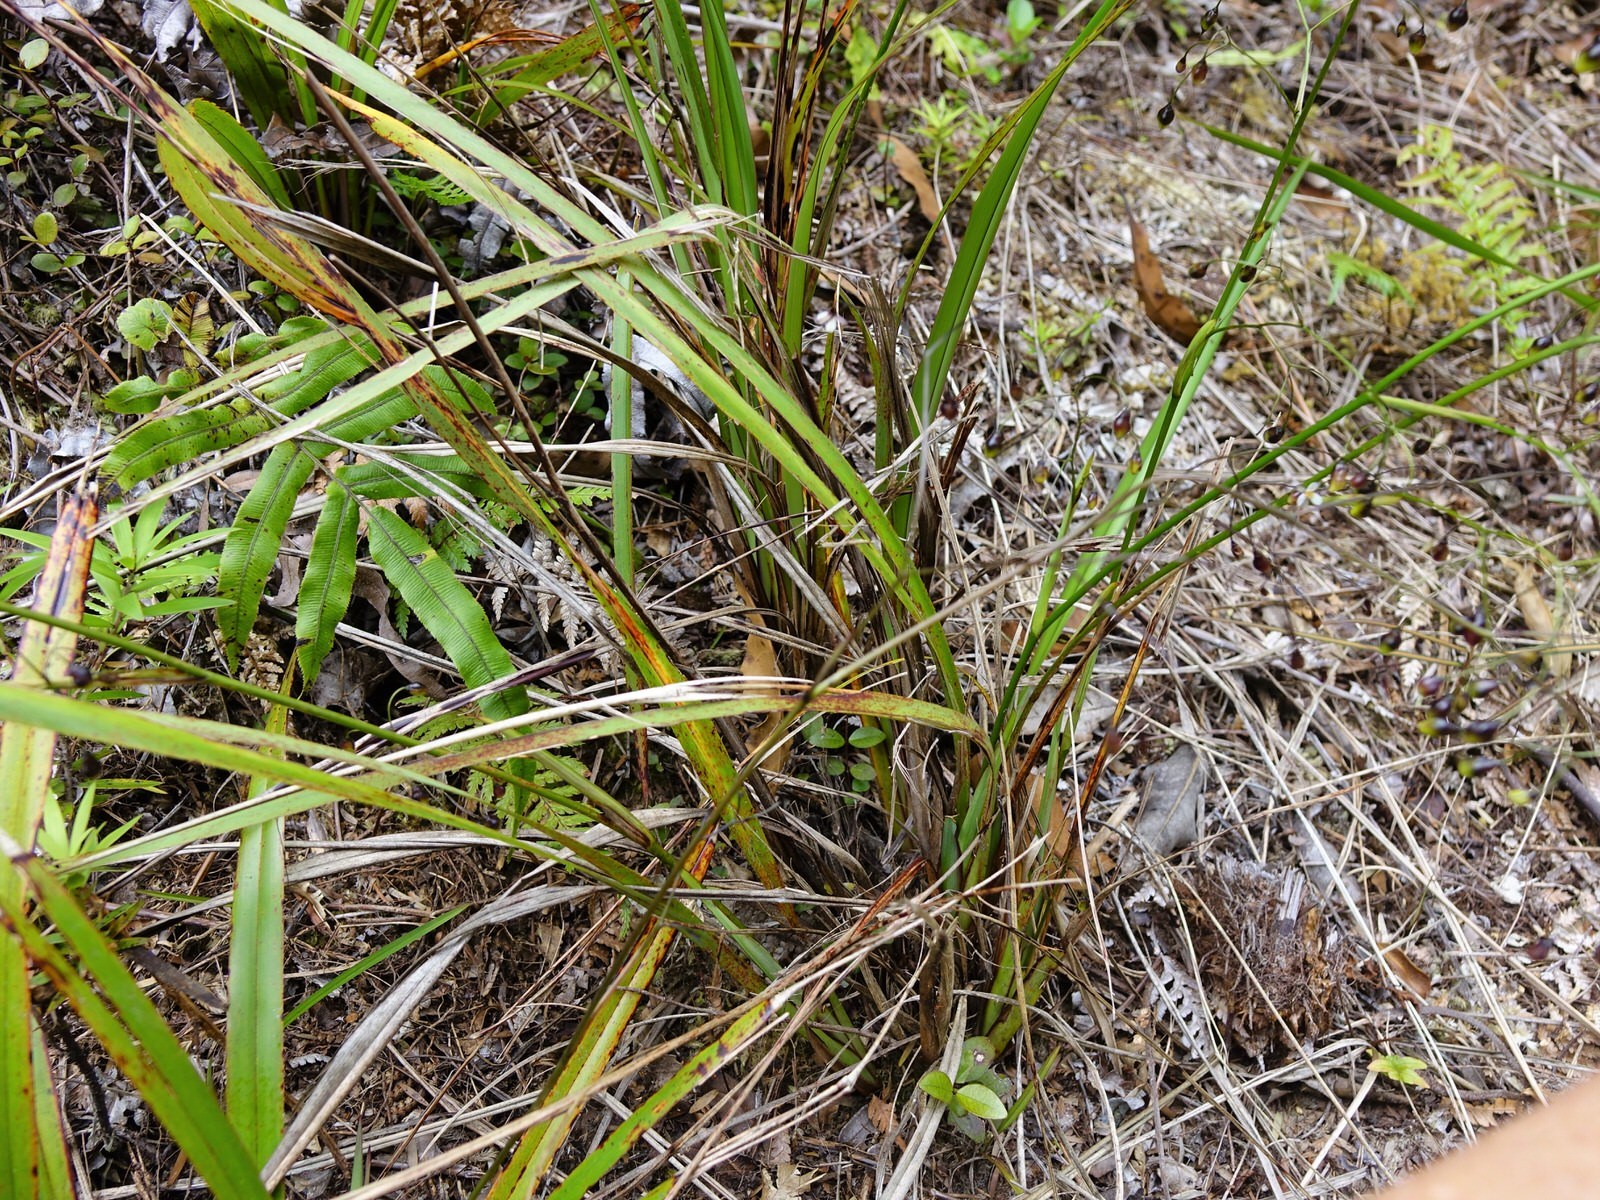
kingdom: Plantae
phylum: Tracheophyta
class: Liliopsida
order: Asparagales
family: Asphodelaceae
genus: Dianella
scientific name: Dianella nigra
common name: New zealand-blueberry
